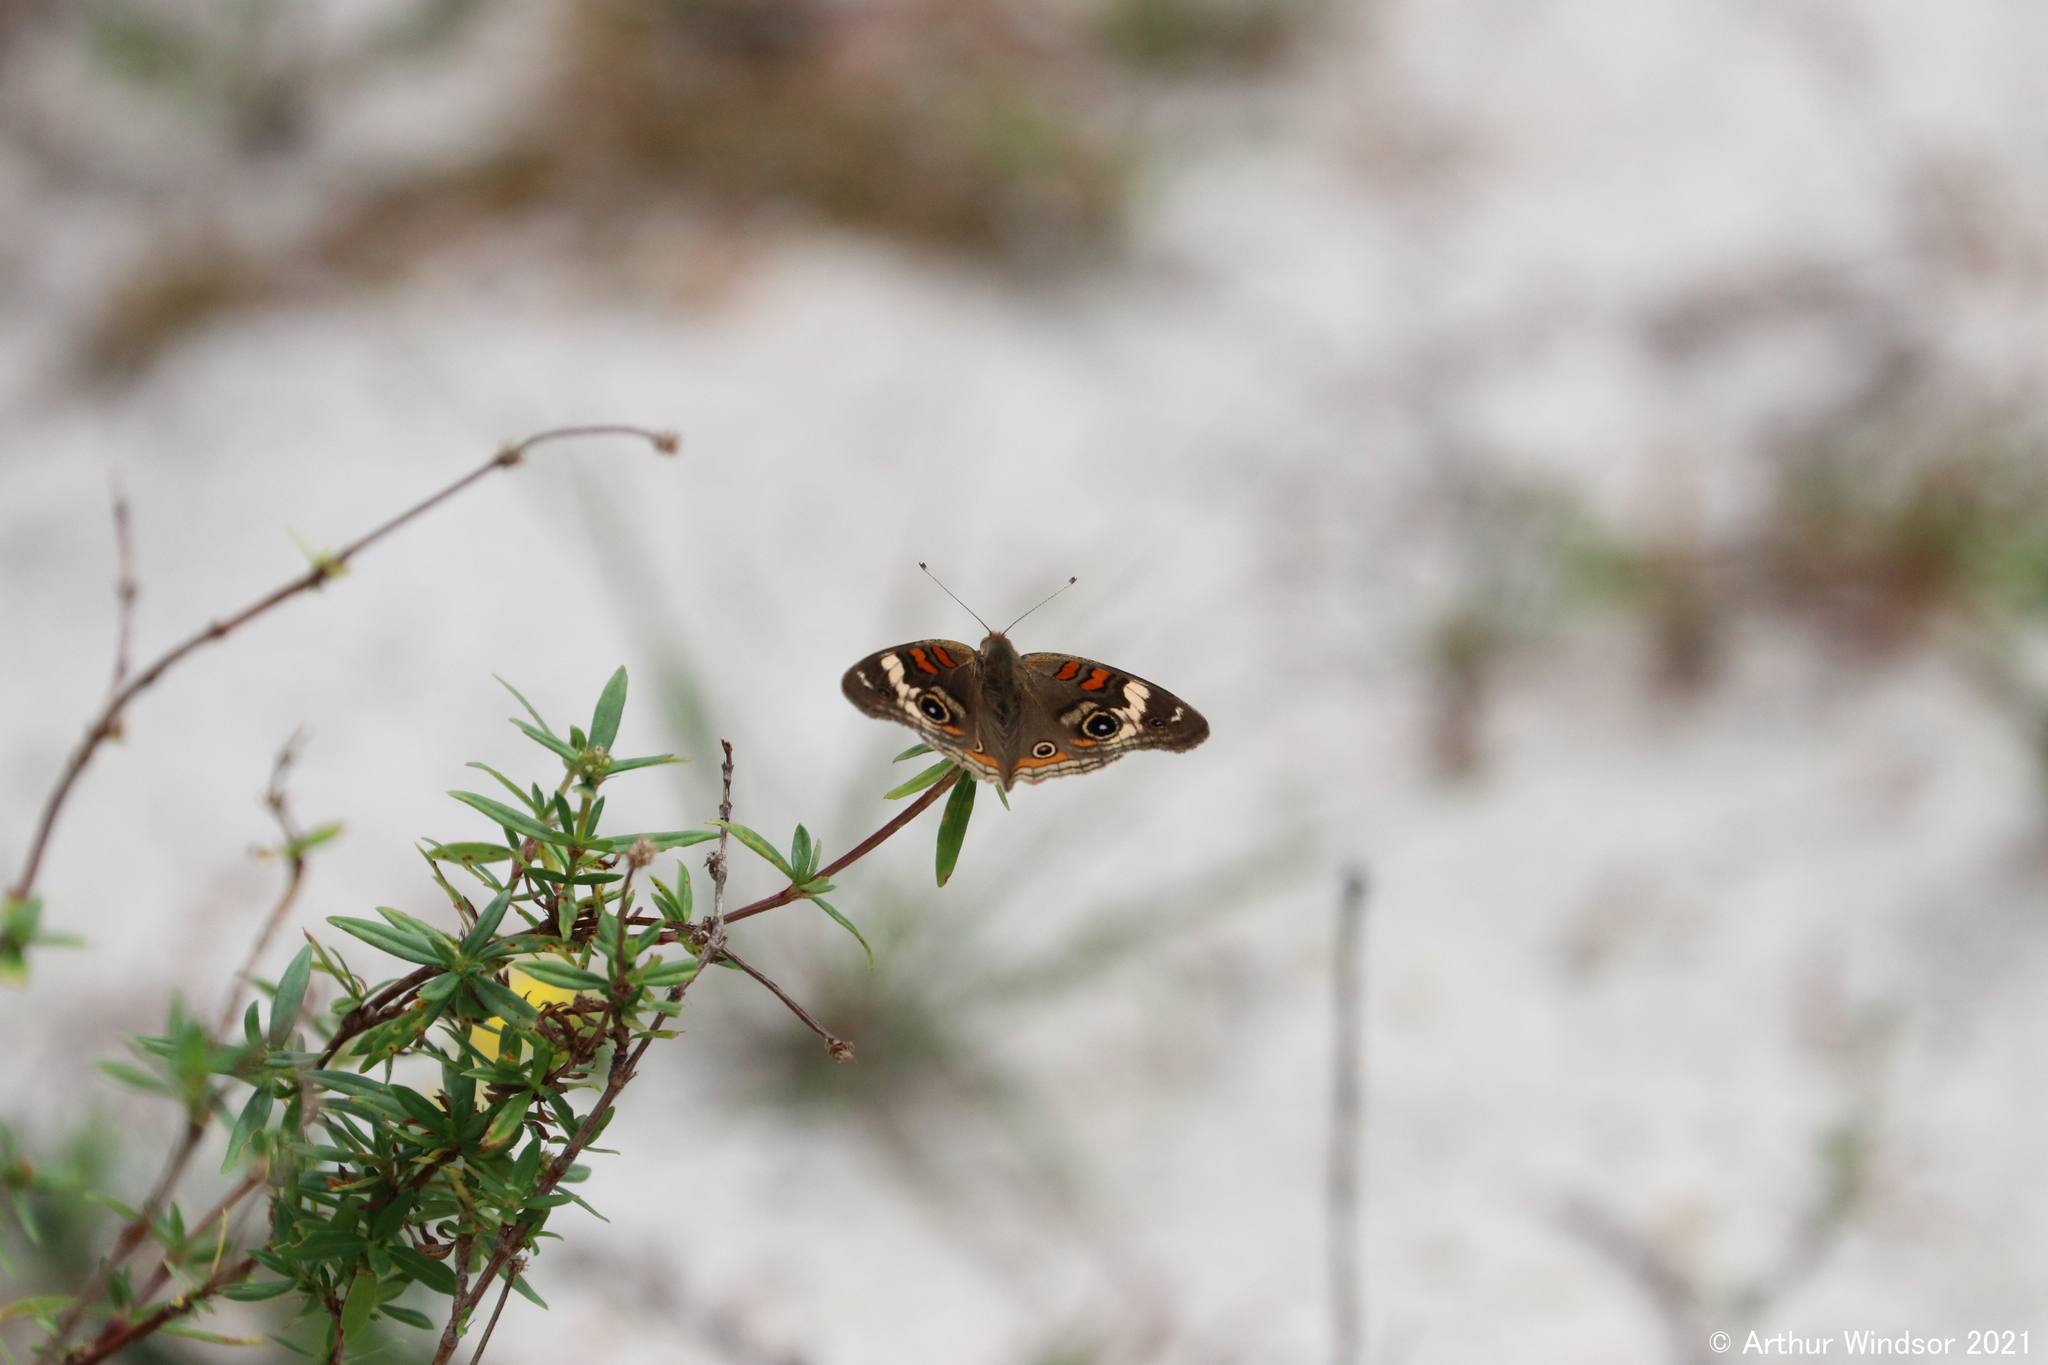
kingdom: Animalia
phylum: Arthropoda
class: Insecta
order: Lepidoptera
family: Nymphalidae
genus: Junonia
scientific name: Junonia coenia
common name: Common buckeye
